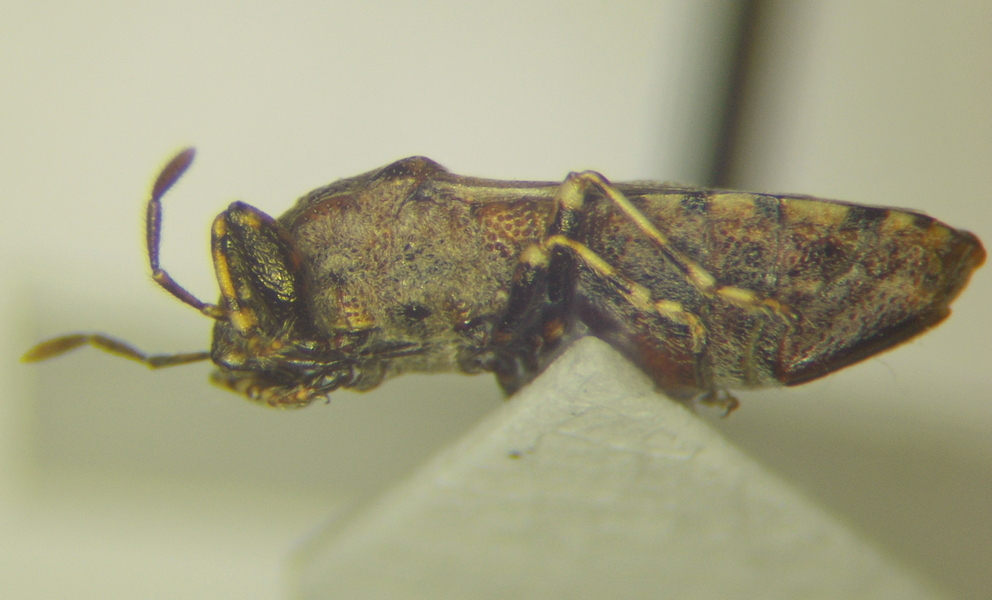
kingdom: Animalia
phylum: Arthropoda
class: Insecta
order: Hemiptera
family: Pachygronthidae
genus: Phlegyas
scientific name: Phlegyas annulicrus
